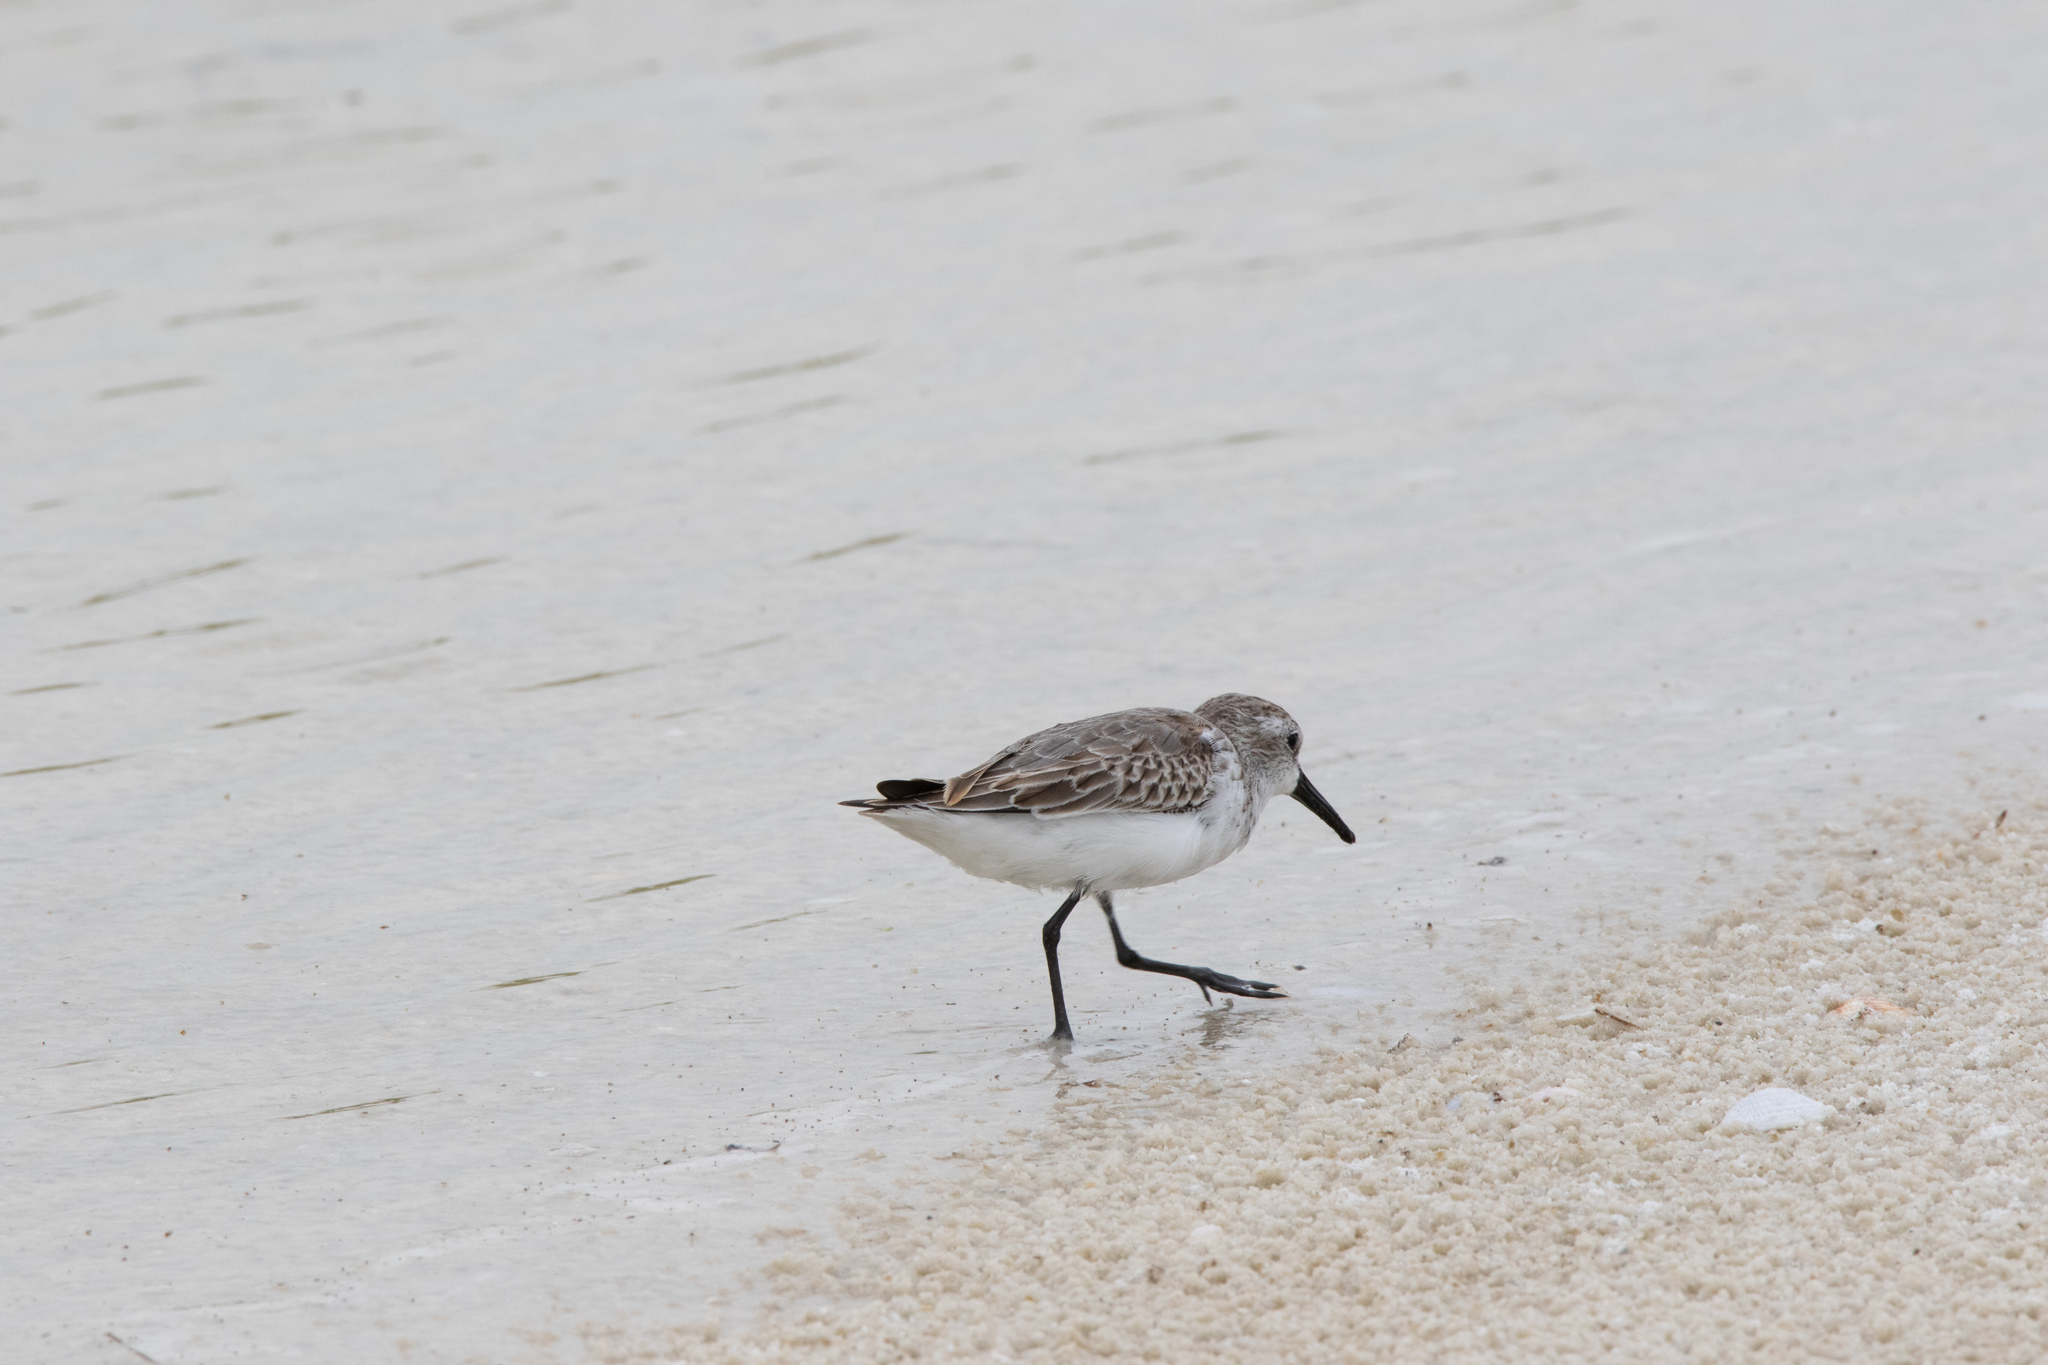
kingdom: Animalia
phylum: Chordata
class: Aves
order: Charadriiformes
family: Scolopacidae
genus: Calidris
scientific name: Calidris mauri
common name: Western sandpiper
